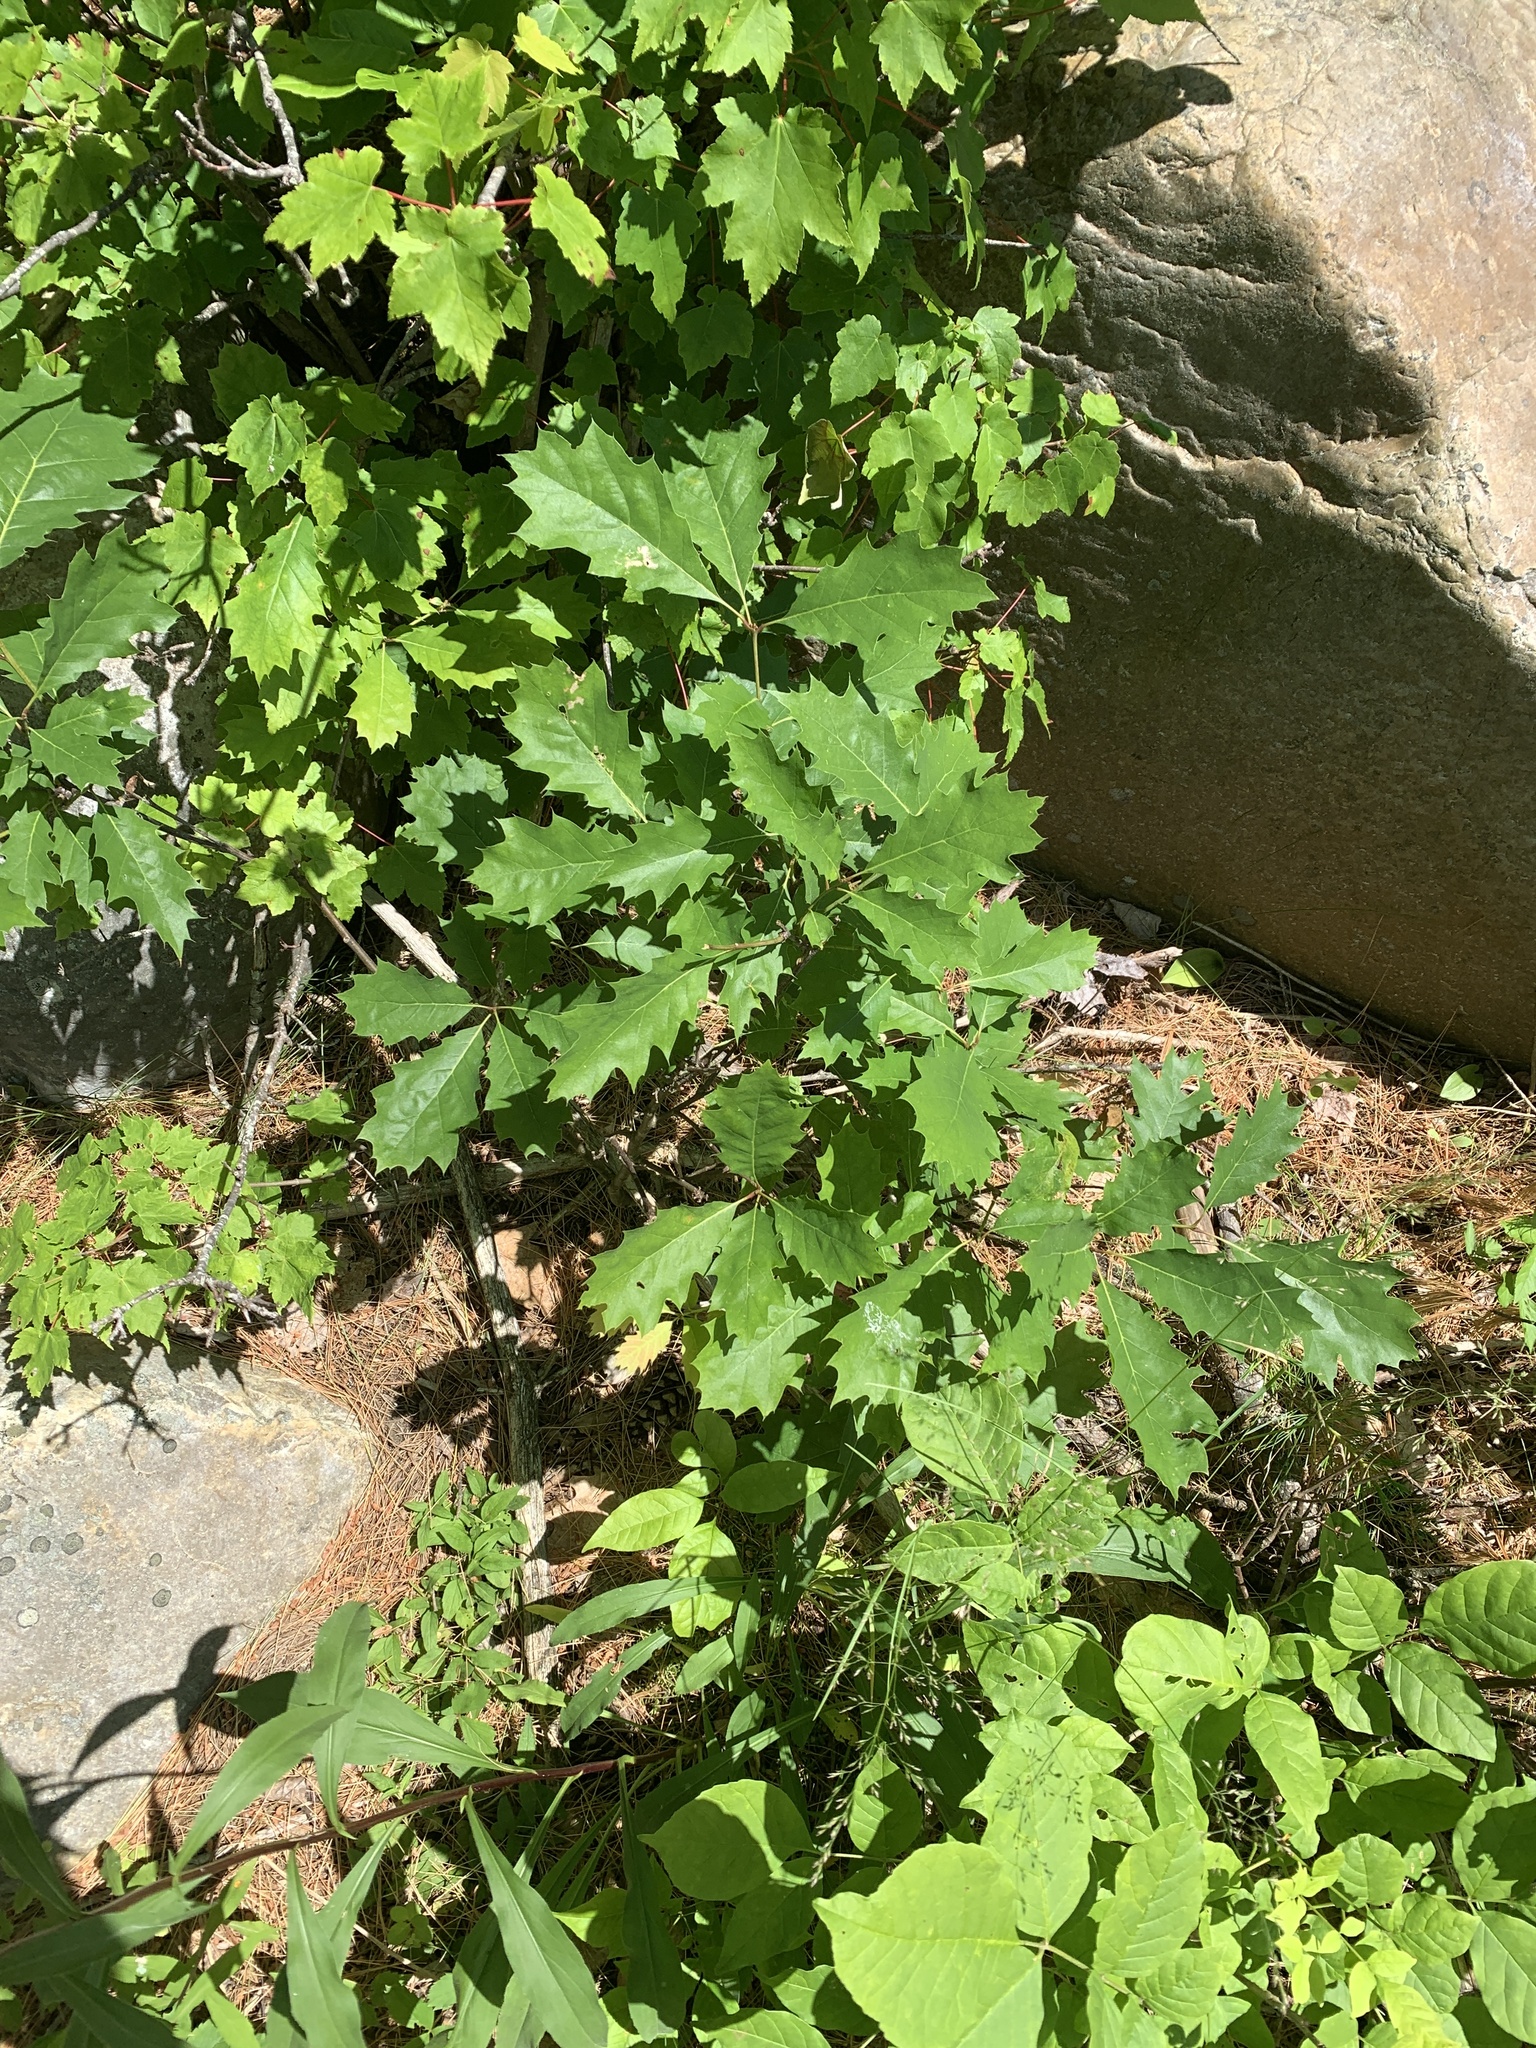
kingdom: Plantae
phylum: Tracheophyta
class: Magnoliopsida
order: Fagales
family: Fagaceae
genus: Quercus
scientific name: Quercus rubra
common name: Red oak
